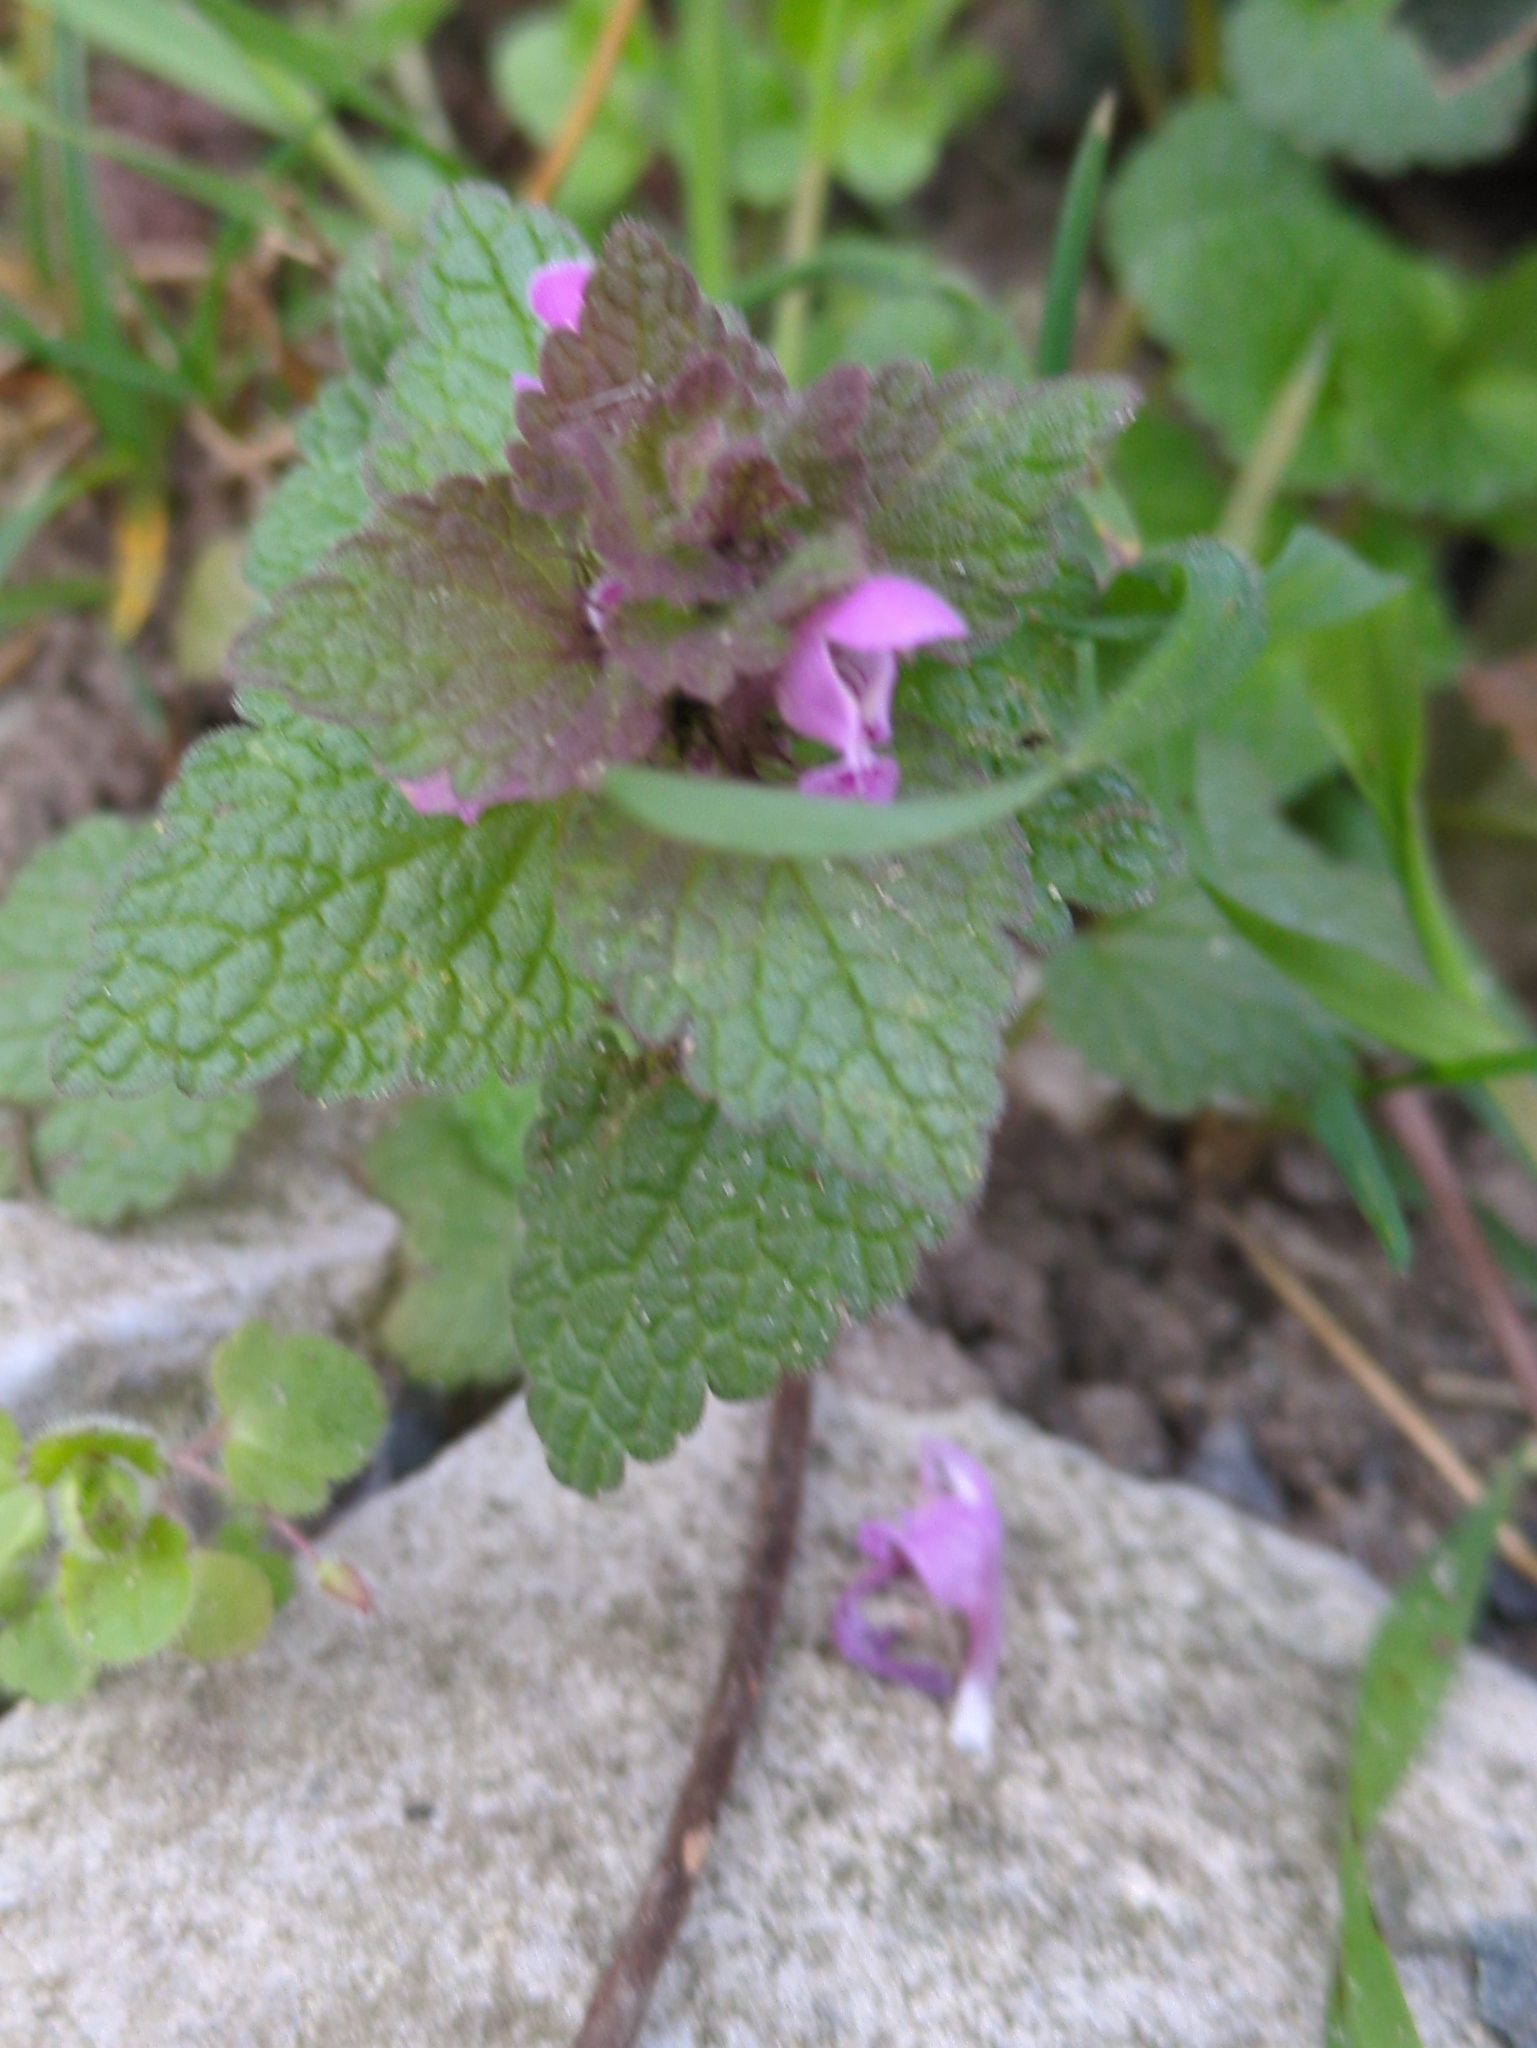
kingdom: Plantae
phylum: Tracheophyta
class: Magnoliopsida
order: Lamiales
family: Lamiaceae
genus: Lamium
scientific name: Lamium purpureum
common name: Red dead-nettle
